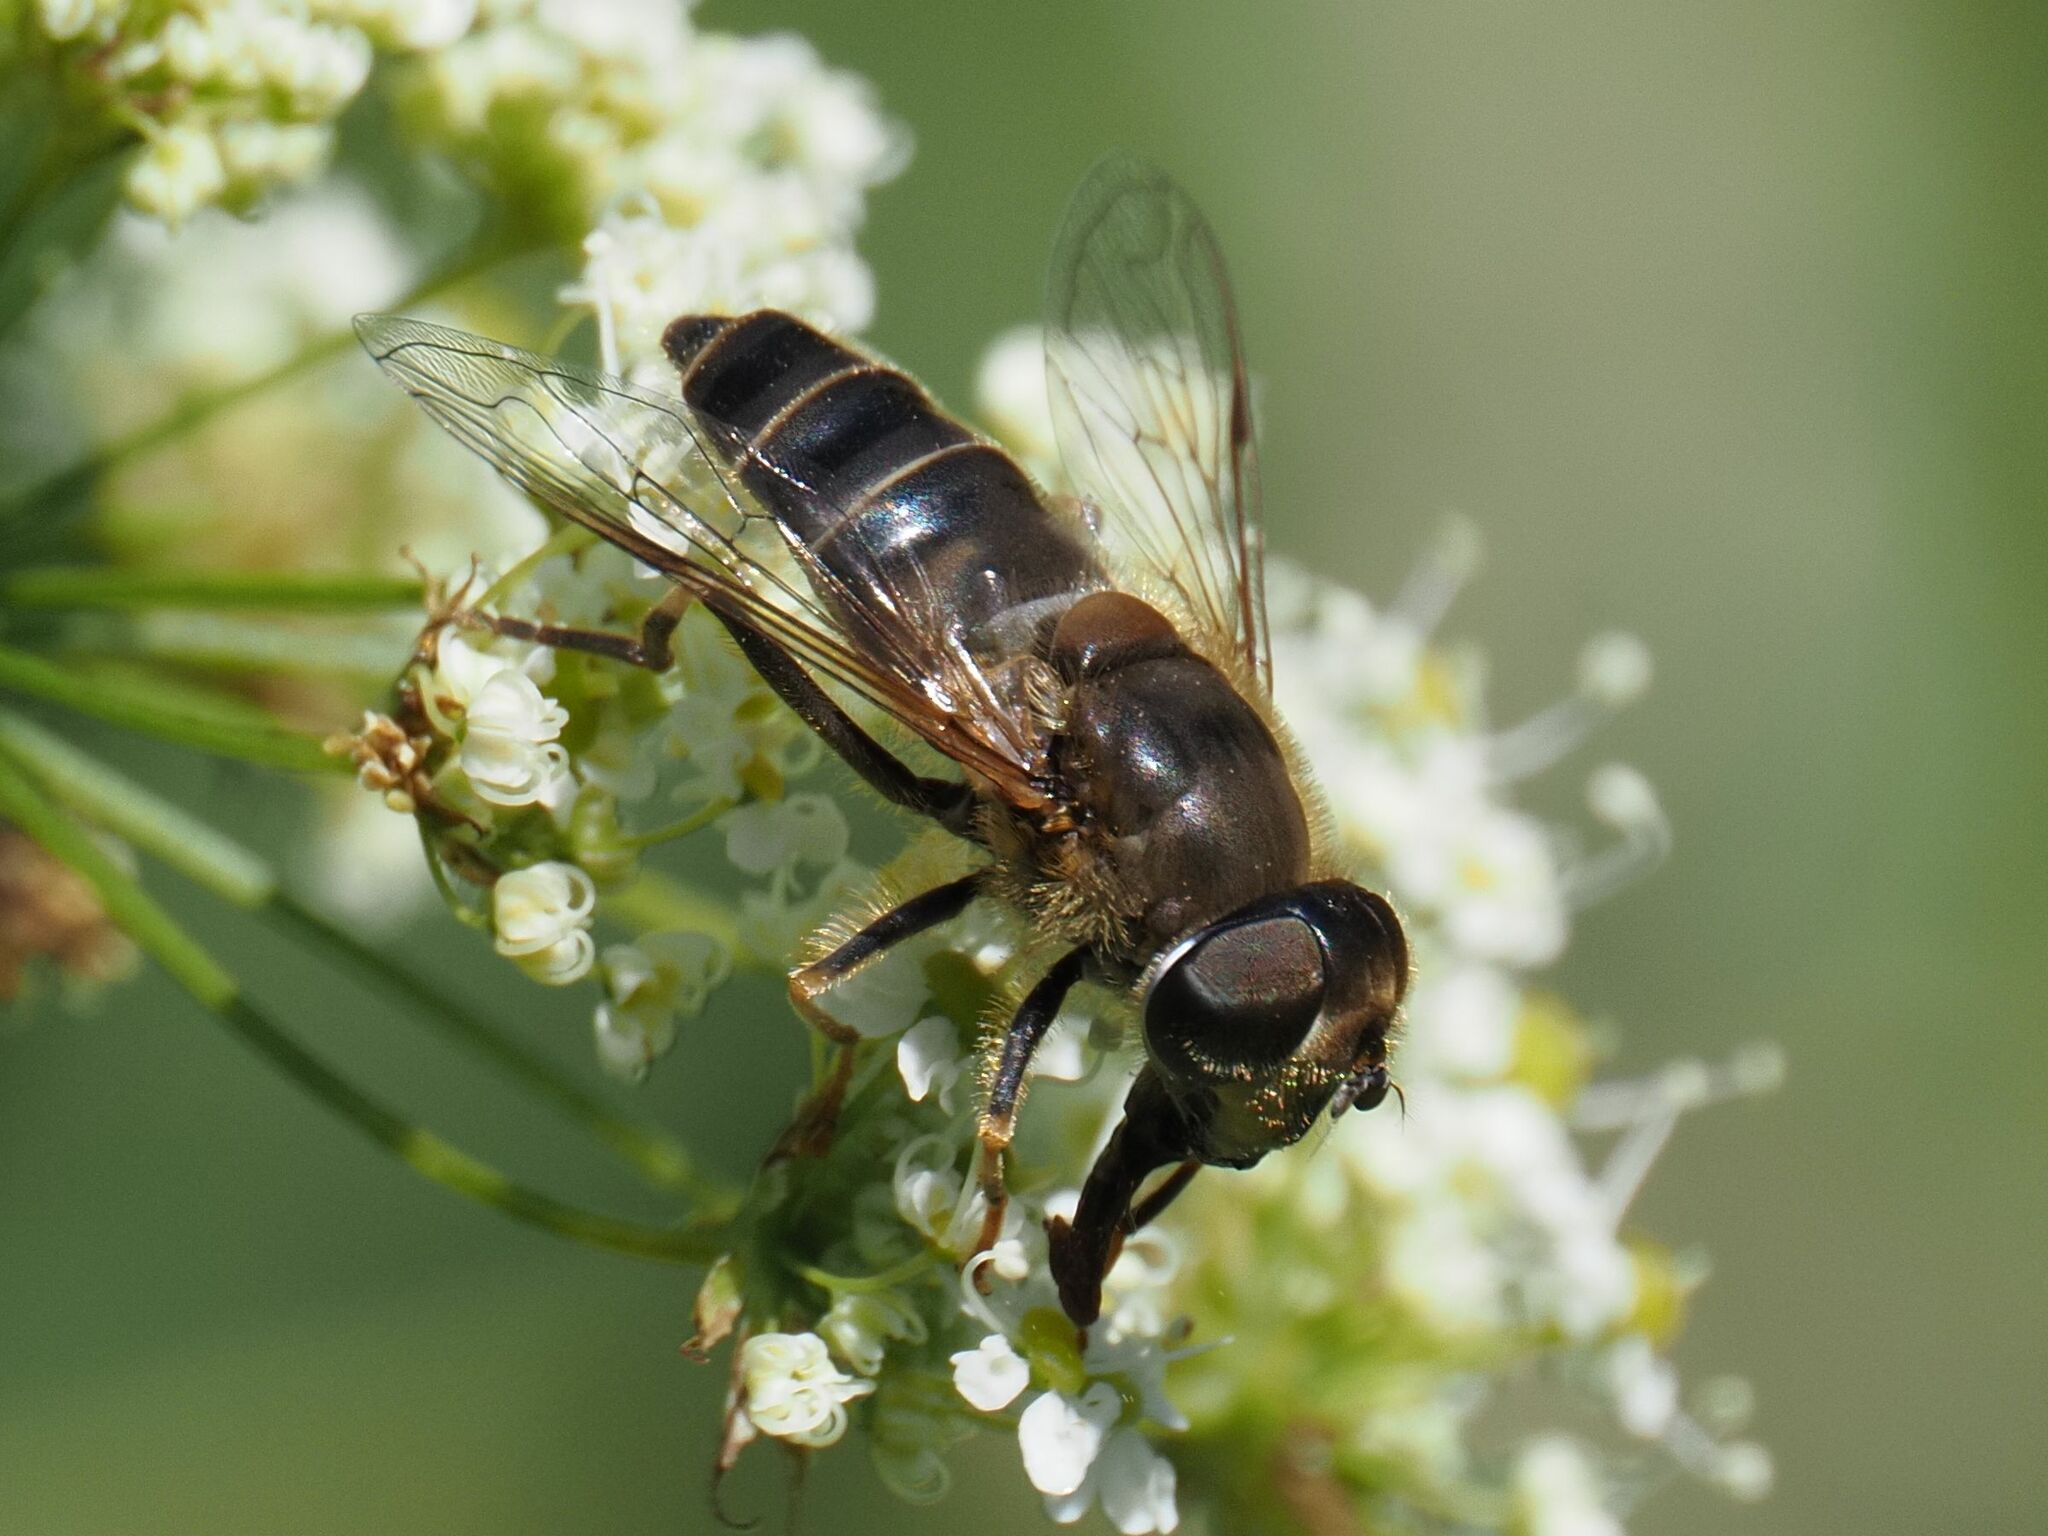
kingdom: Animalia
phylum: Arthropoda
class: Insecta
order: Diptera
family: Syrphidae
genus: Eristalis
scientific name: Eristalis pertinax
